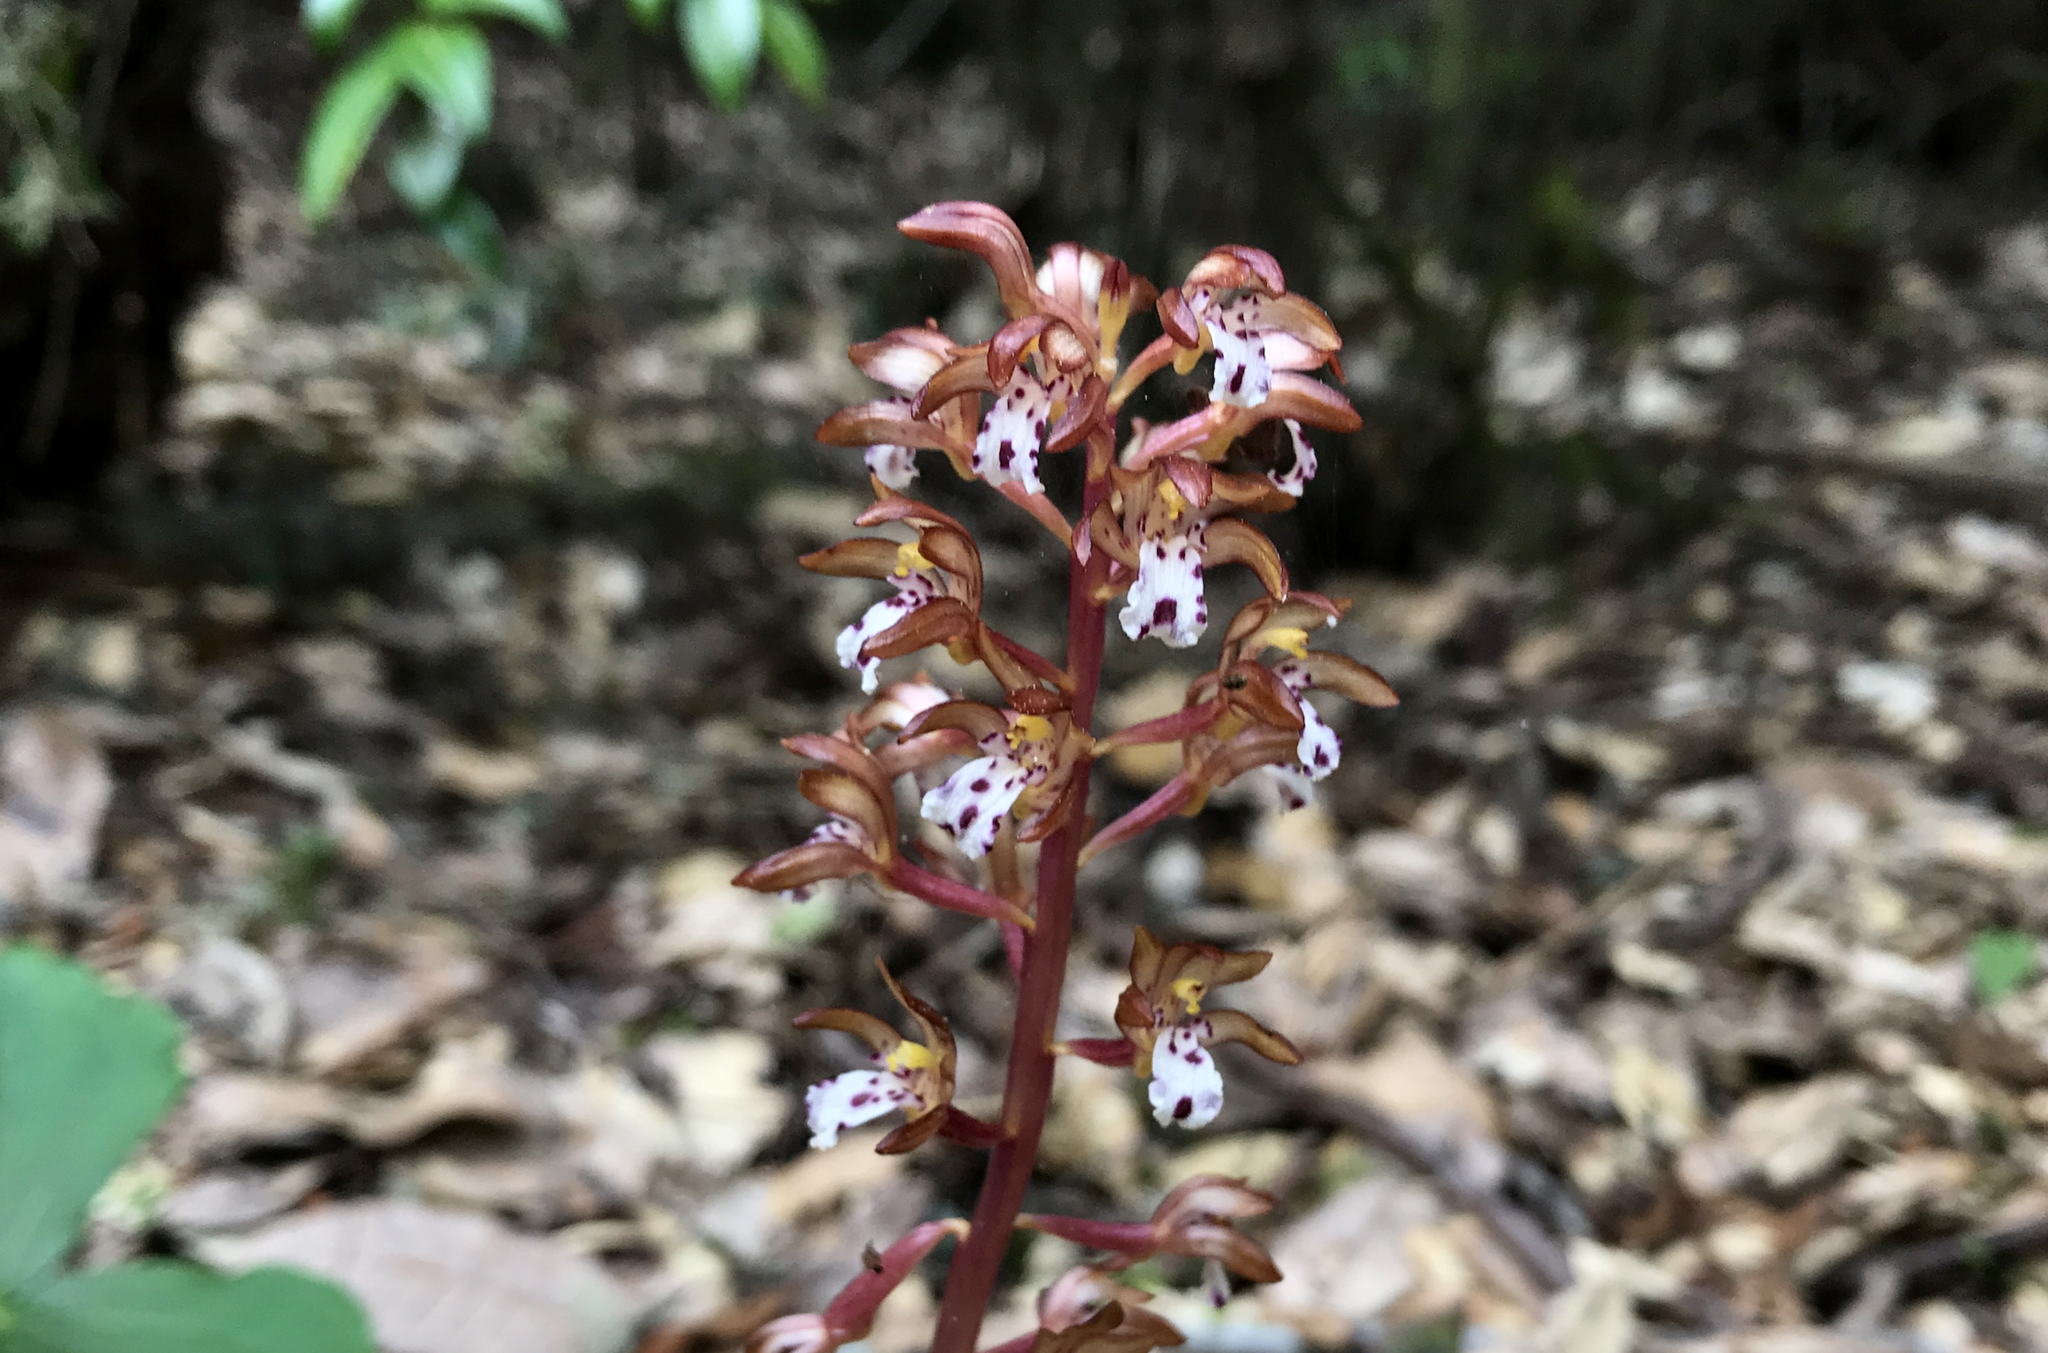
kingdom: Plantae
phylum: Tracheophyta
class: Liliopsida
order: Asparagales
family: Orchidaceae
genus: Corallorhiza
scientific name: Corallorhiza maculata
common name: Spotted coralroot
